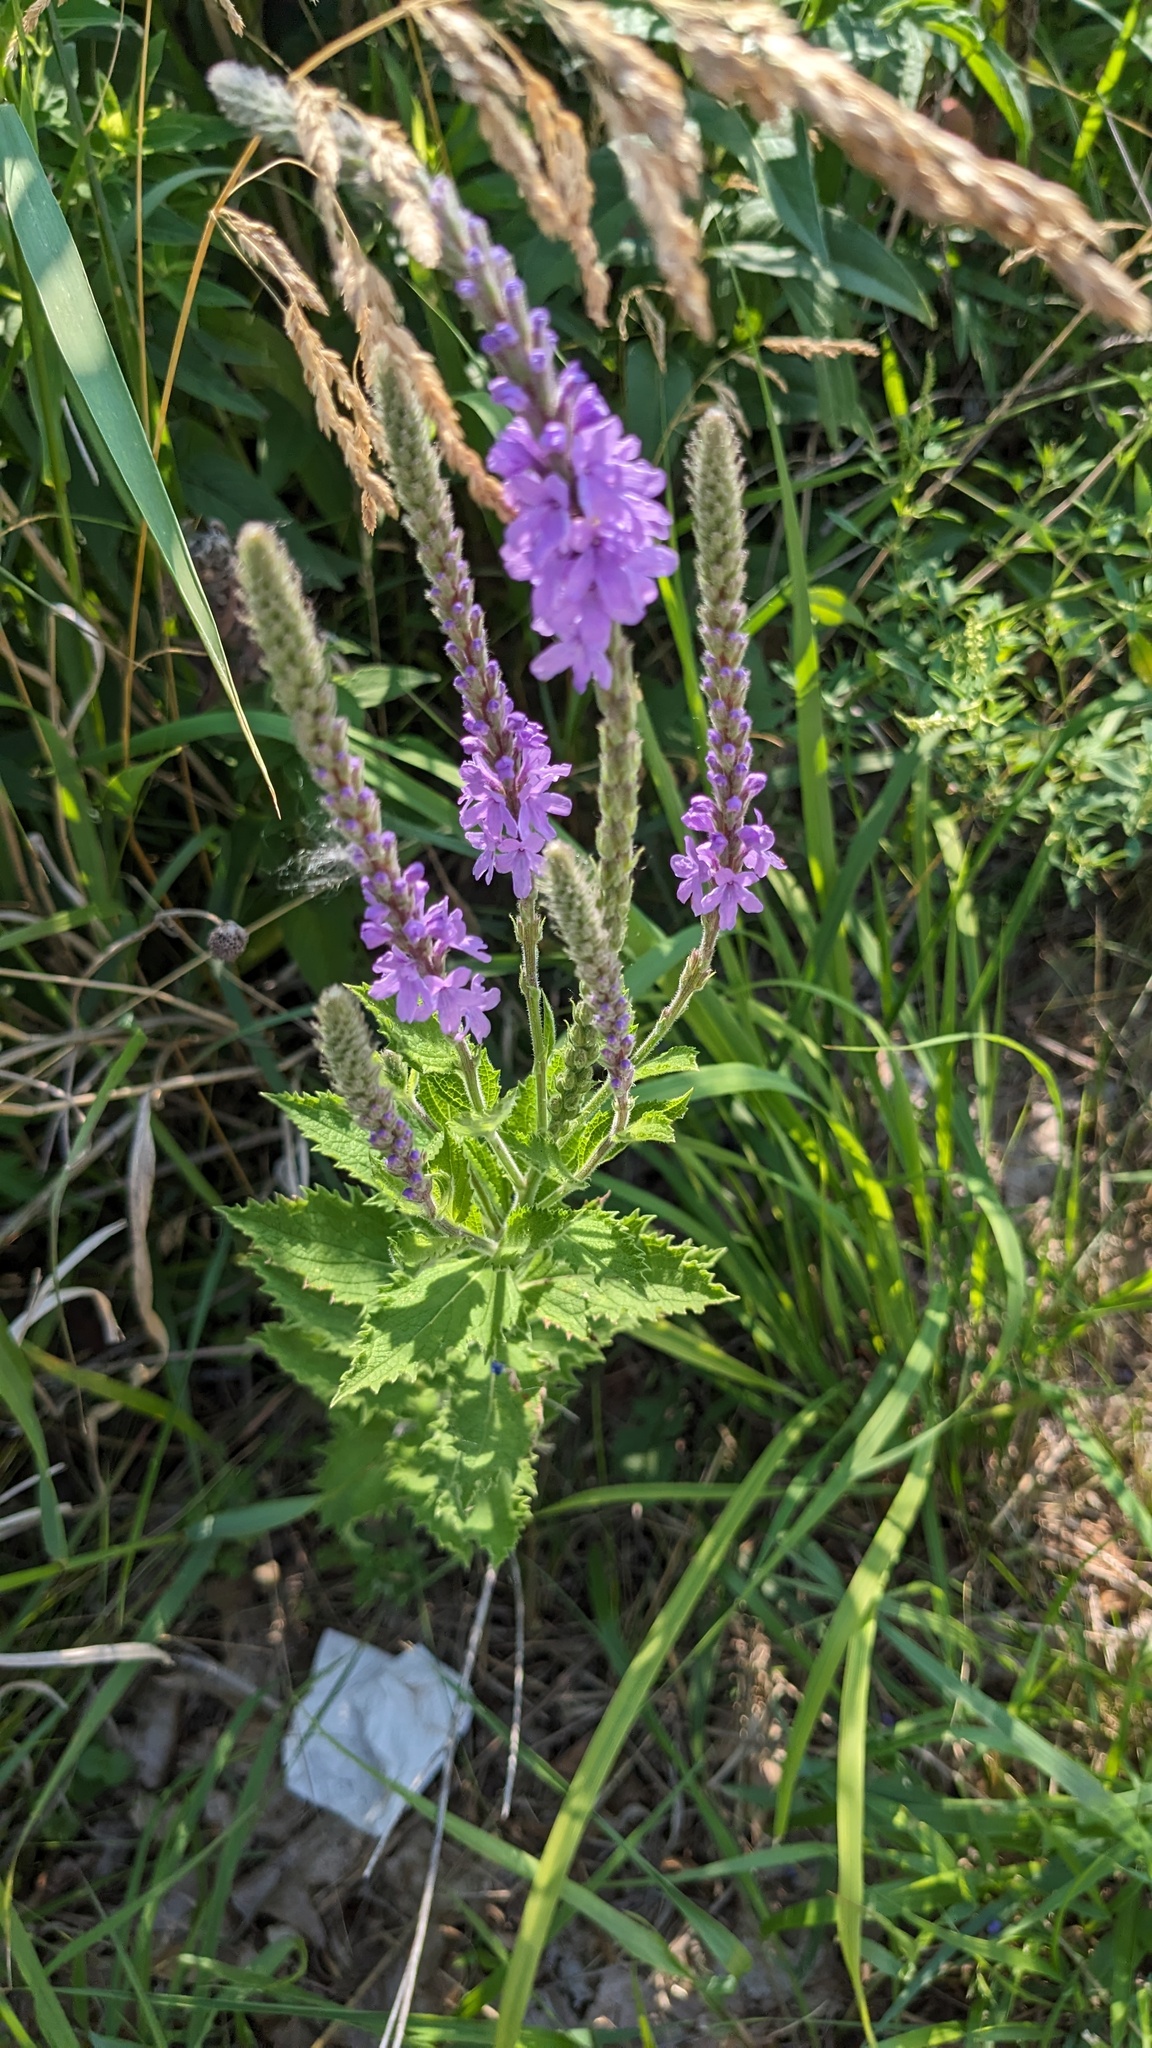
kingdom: Plantae
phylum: Tracheophyta
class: Magnoliopsida
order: Lamiales
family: Verbenaceae
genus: Verbena
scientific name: Verbena stricta
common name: Hoary vervain
